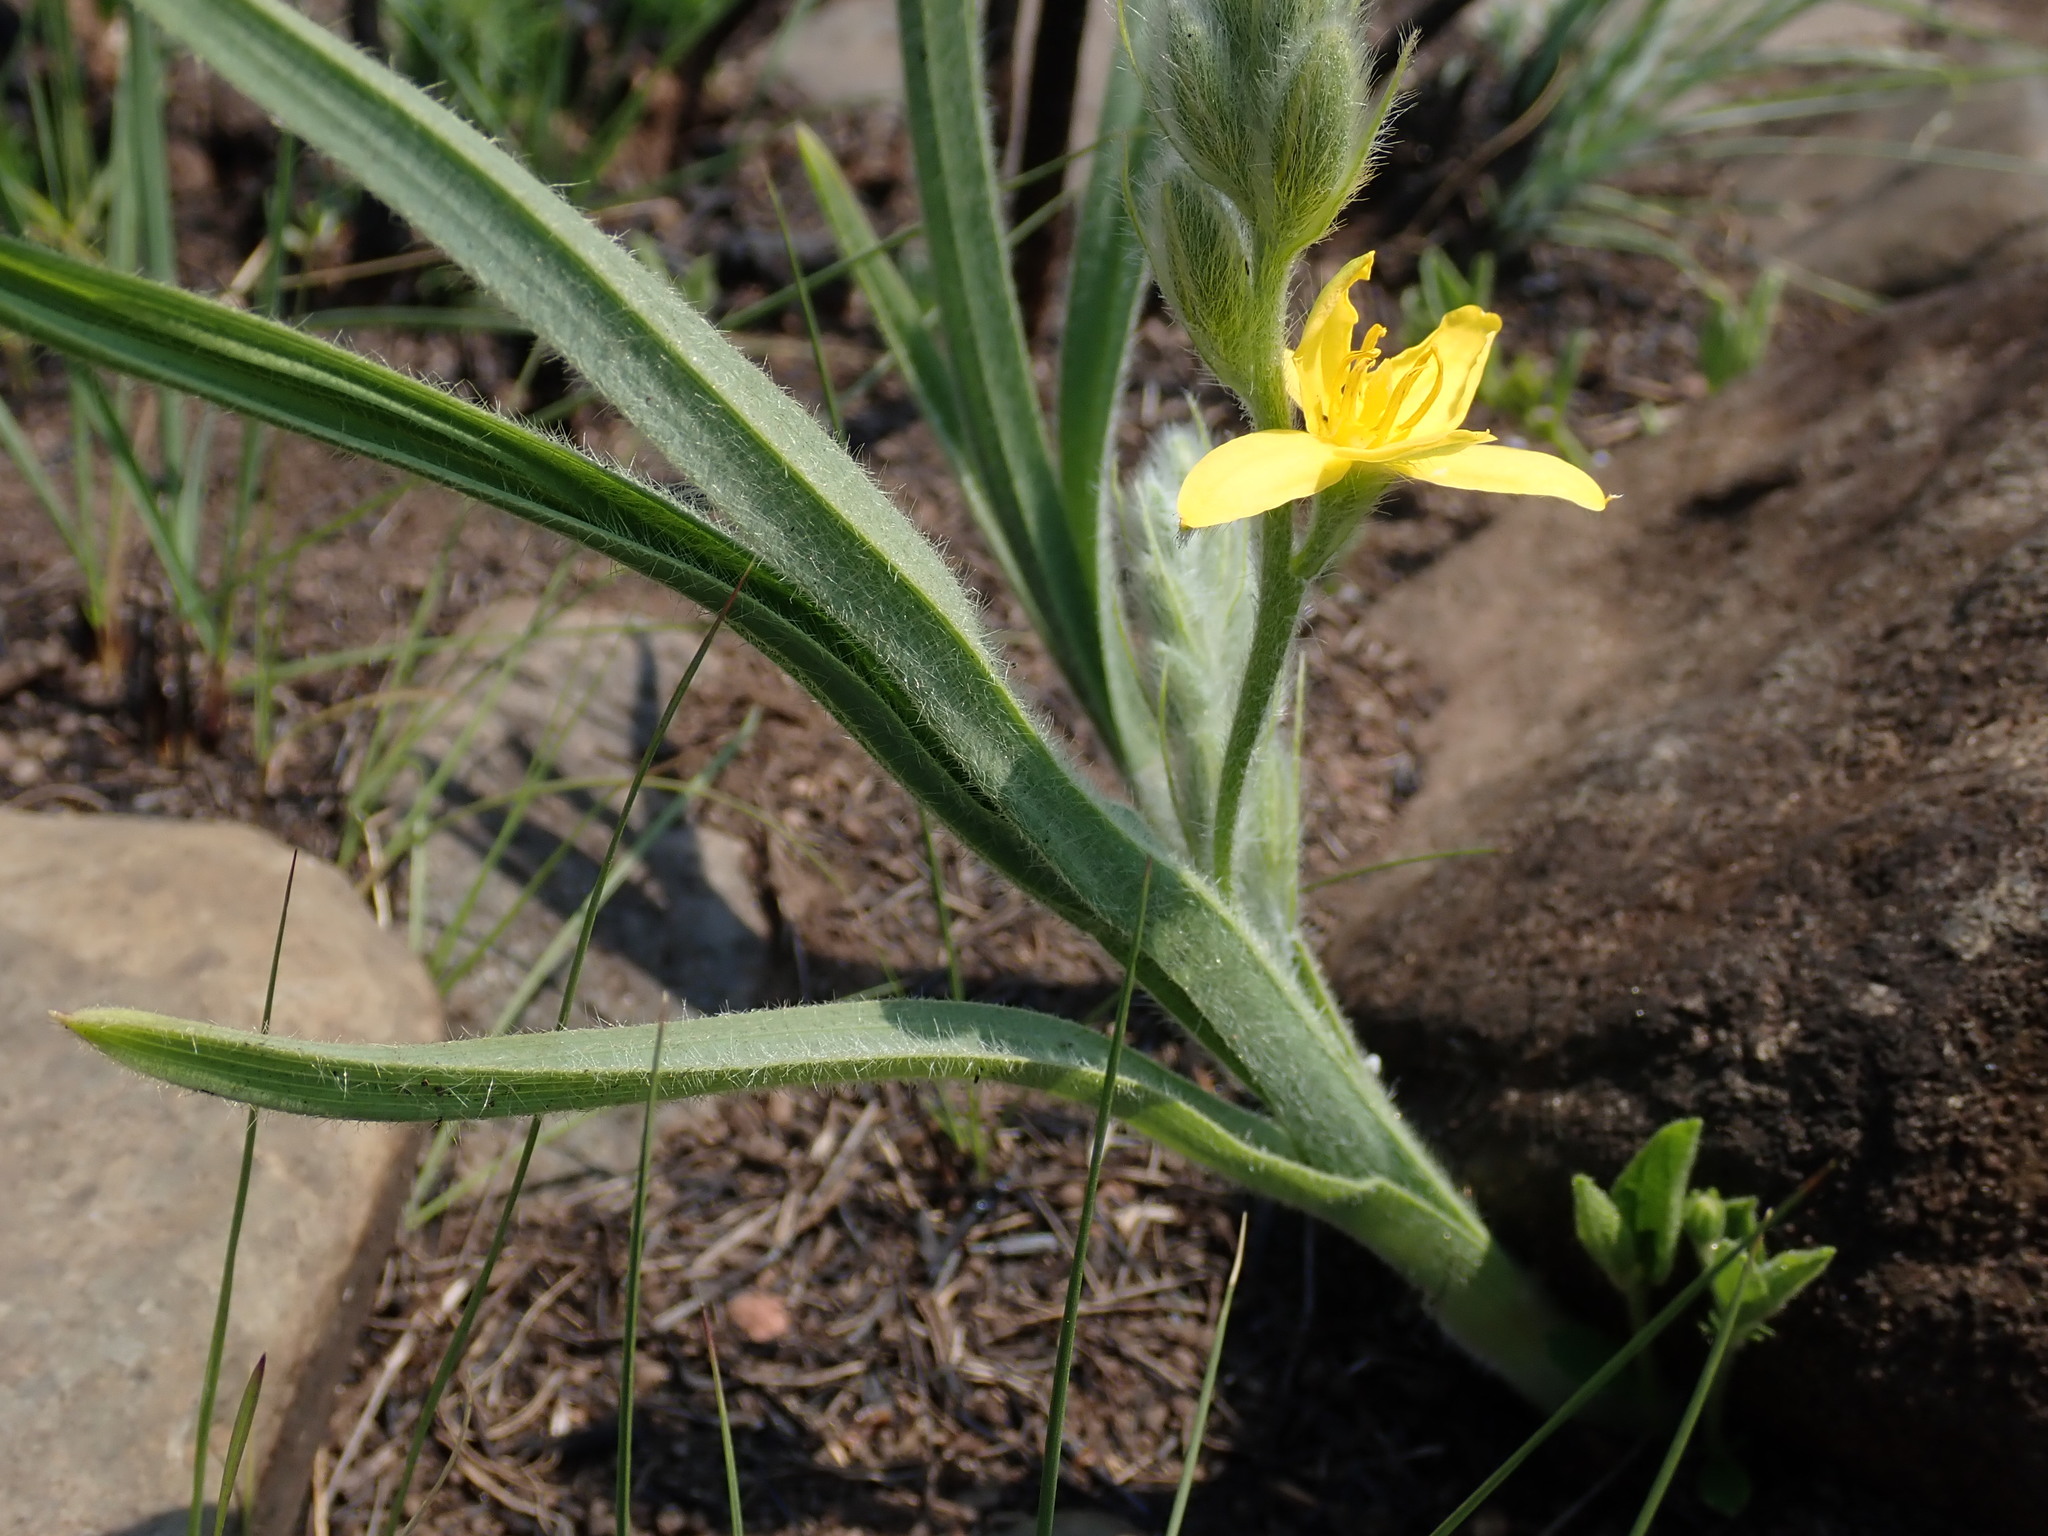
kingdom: Plantae
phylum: Tracheophyta
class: Liliopsida
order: Asparagales
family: Hypoxidaceae
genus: Hypoxis
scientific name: Hypoxis rigidula
